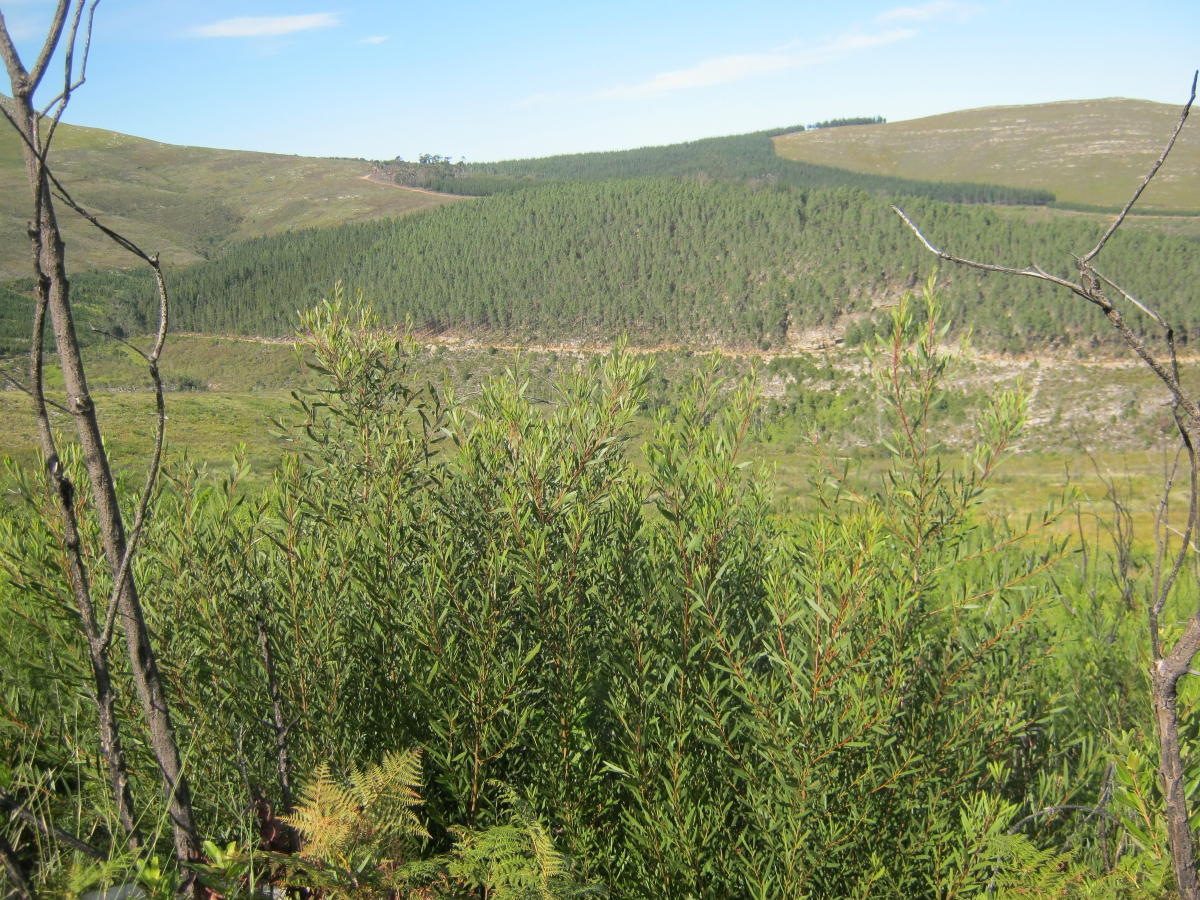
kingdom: Plantae
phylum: Tracheophyta
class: Magnoliopsida
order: Fabales
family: Fabaceae
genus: Acacia
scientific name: Acacia longifolia
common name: Sydney golden wattle
